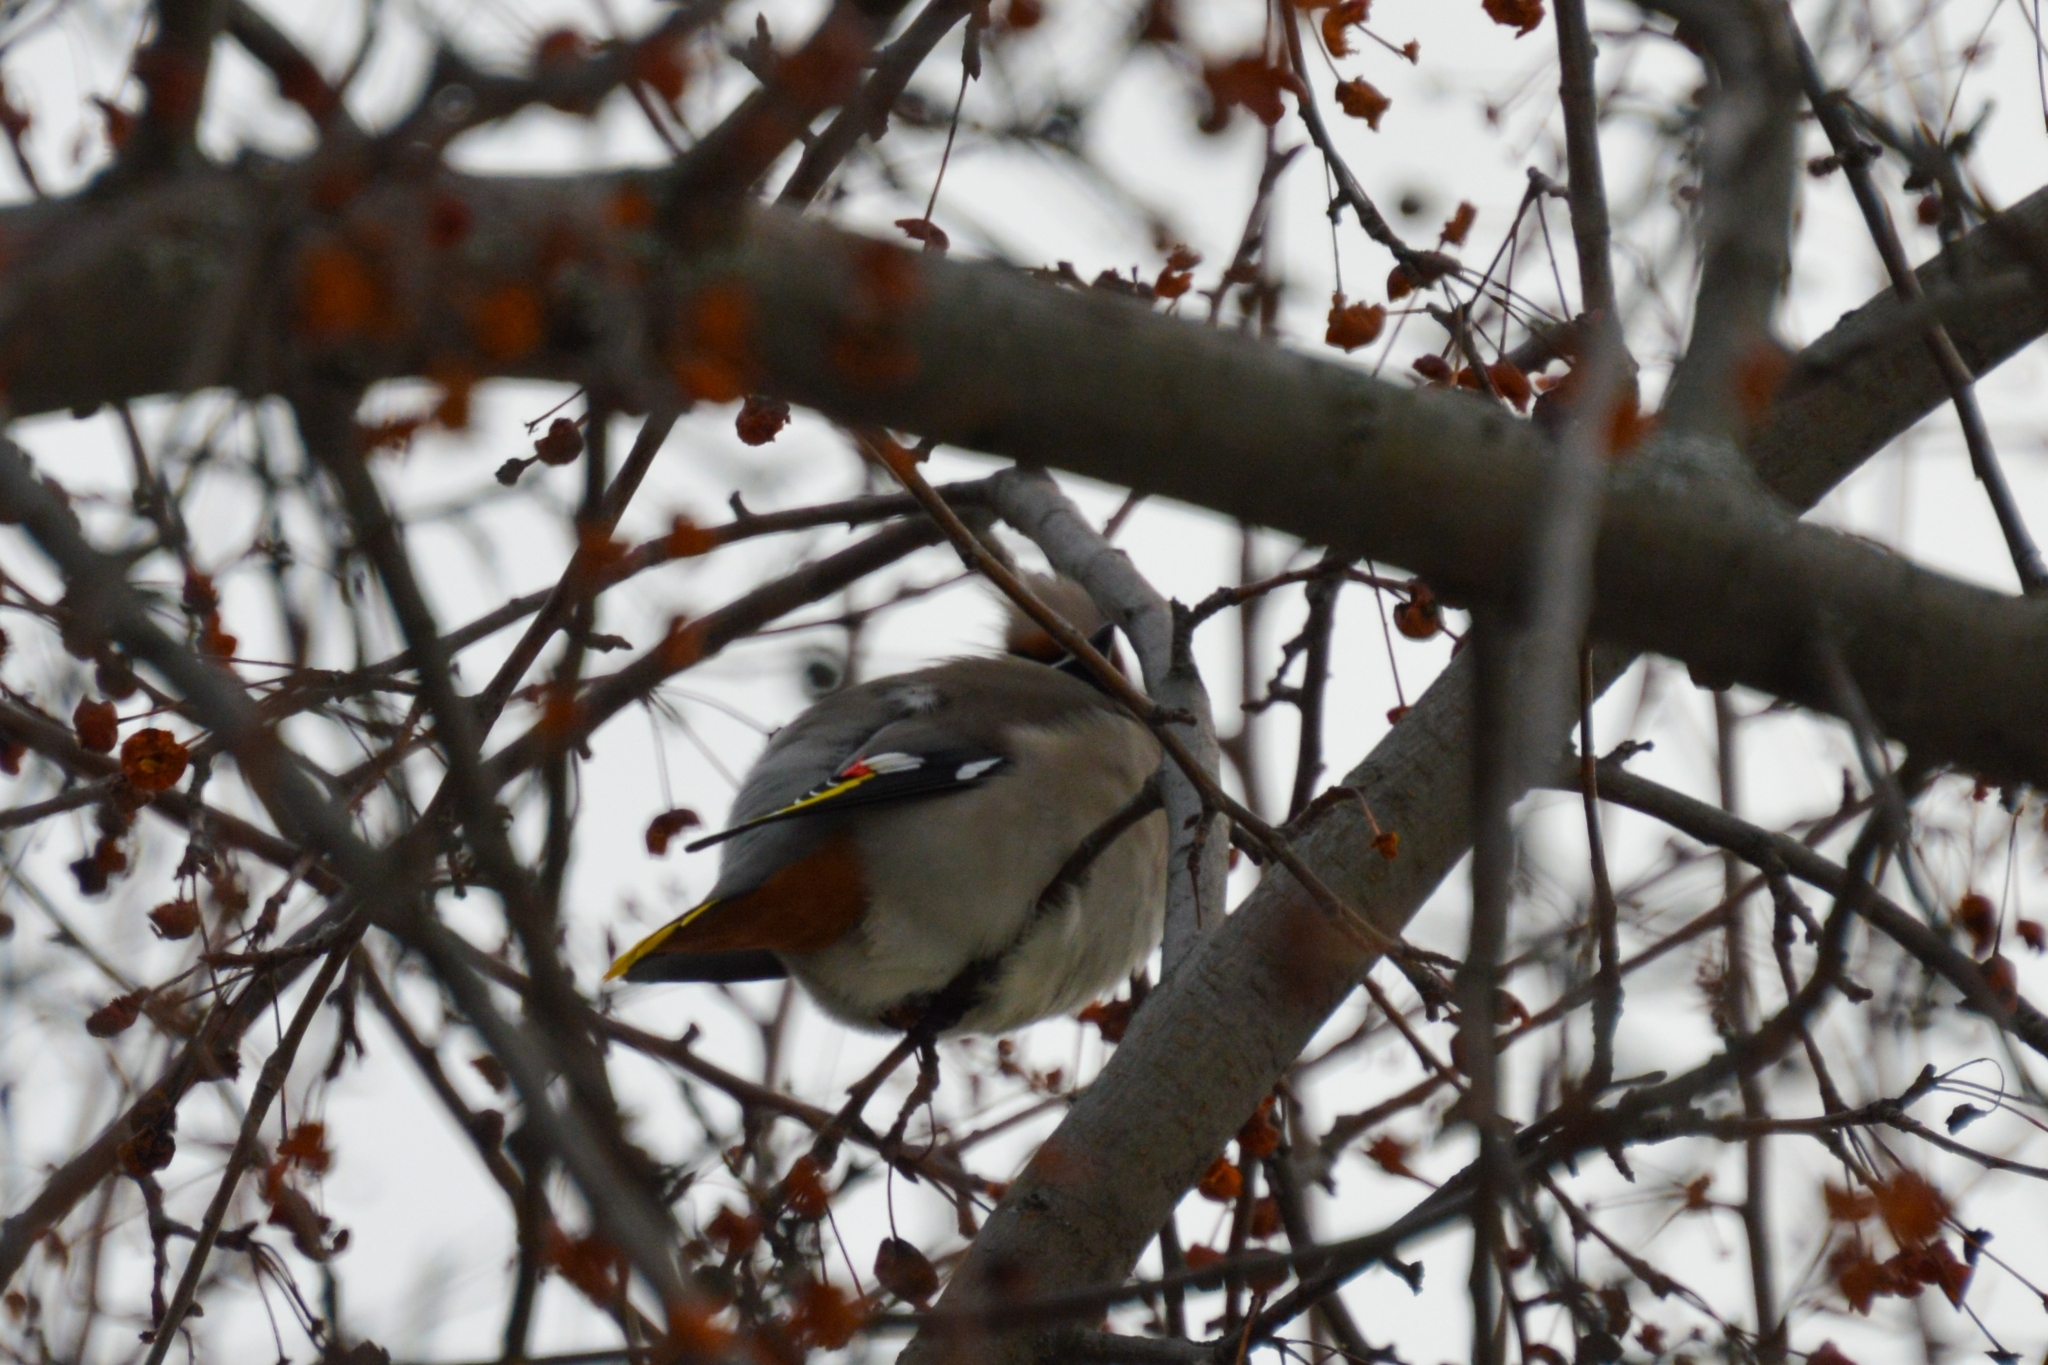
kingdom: Animalia
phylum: Chordata
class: Aves
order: Passeriformes
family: Bombycillidae
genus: Bombycilla
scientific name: Bombycilla garrulus
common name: Bohemian waxwing
